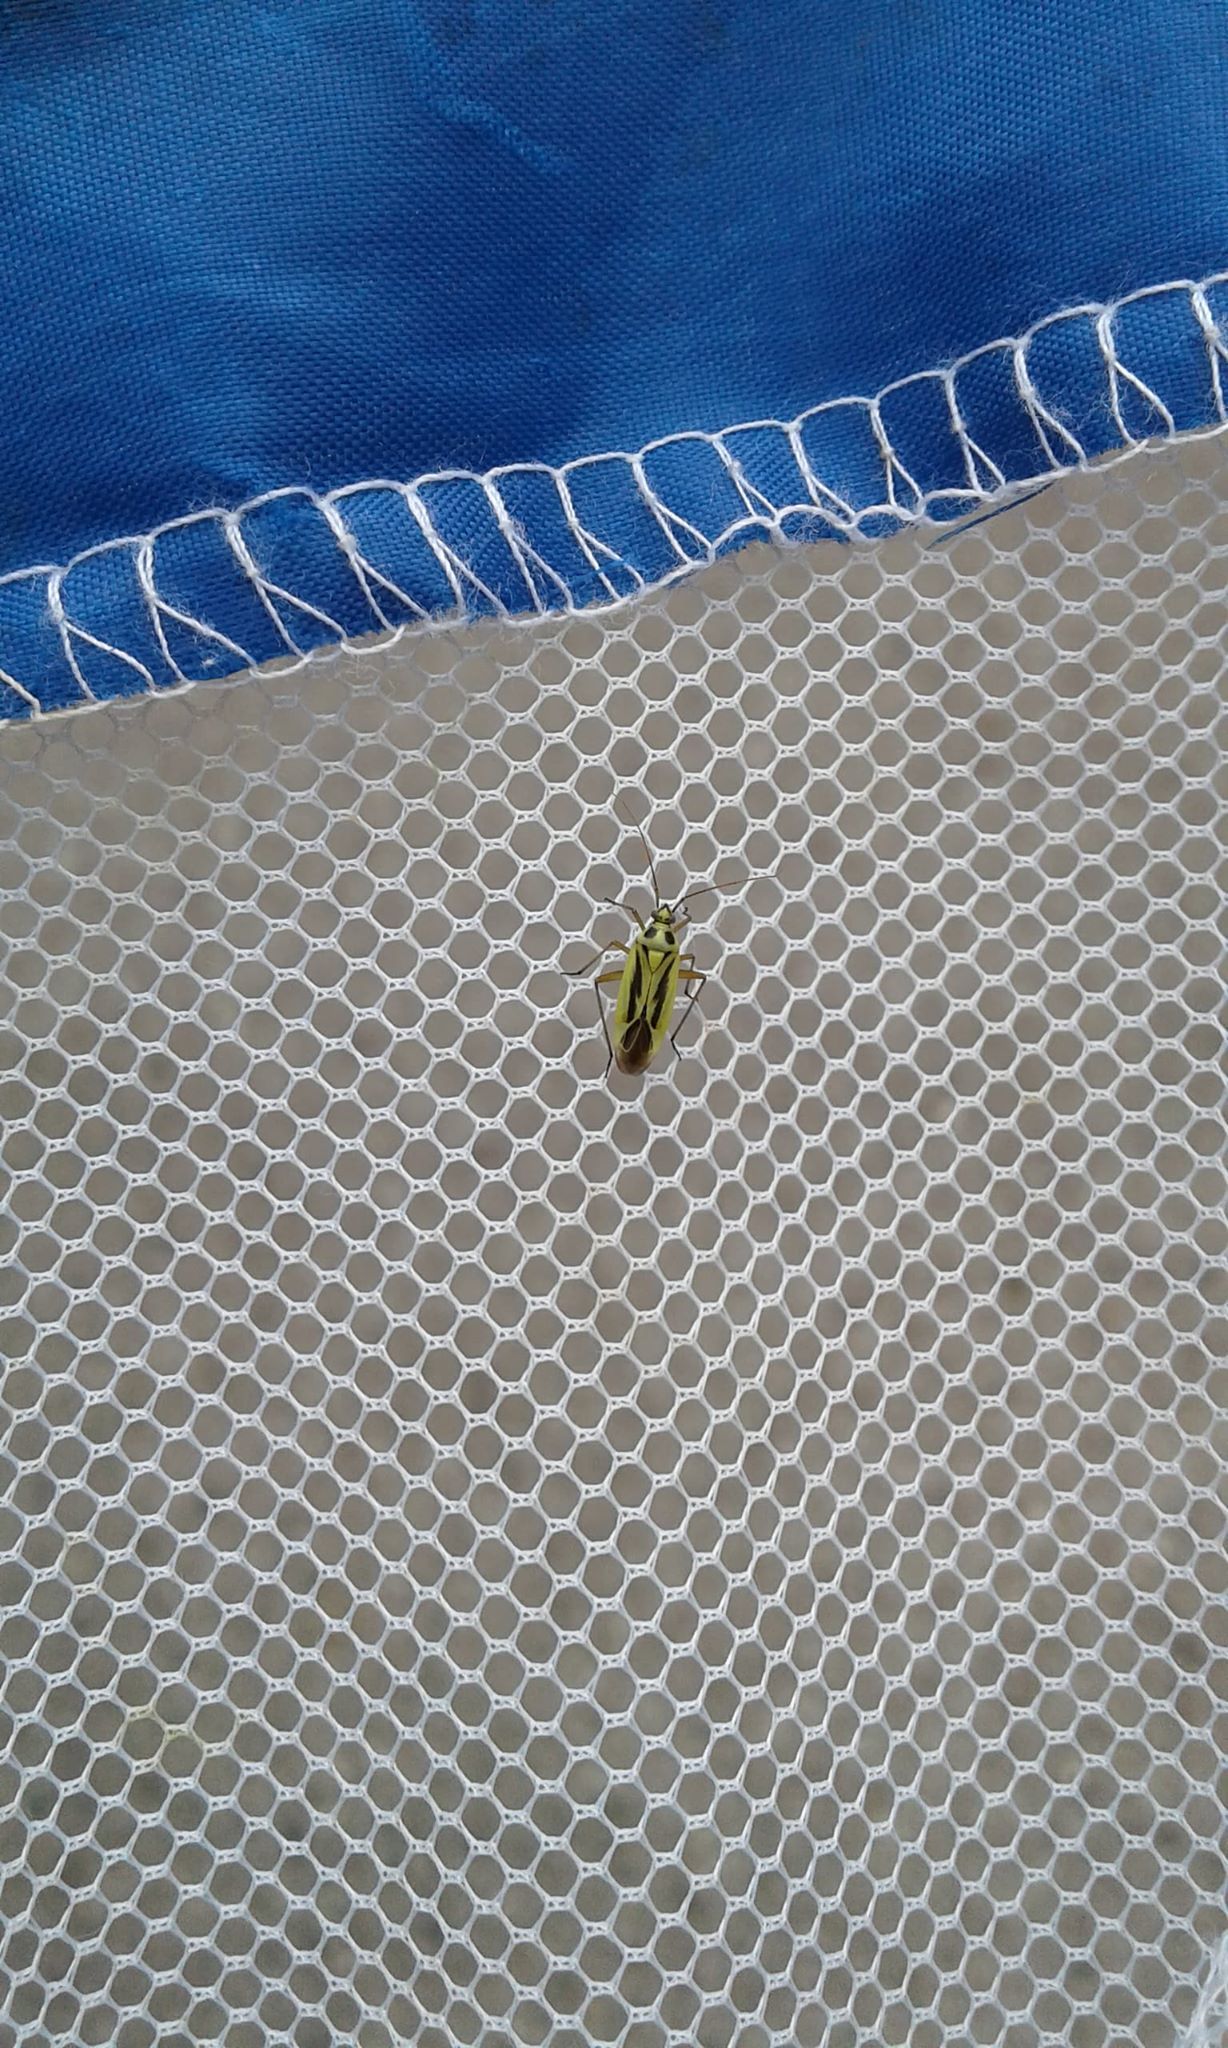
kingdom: Animalia
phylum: Arthropoda
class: Insecta
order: Hemiptera
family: Miridae
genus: Stenotus
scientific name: Stenotus binotatus
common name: Plant bug
